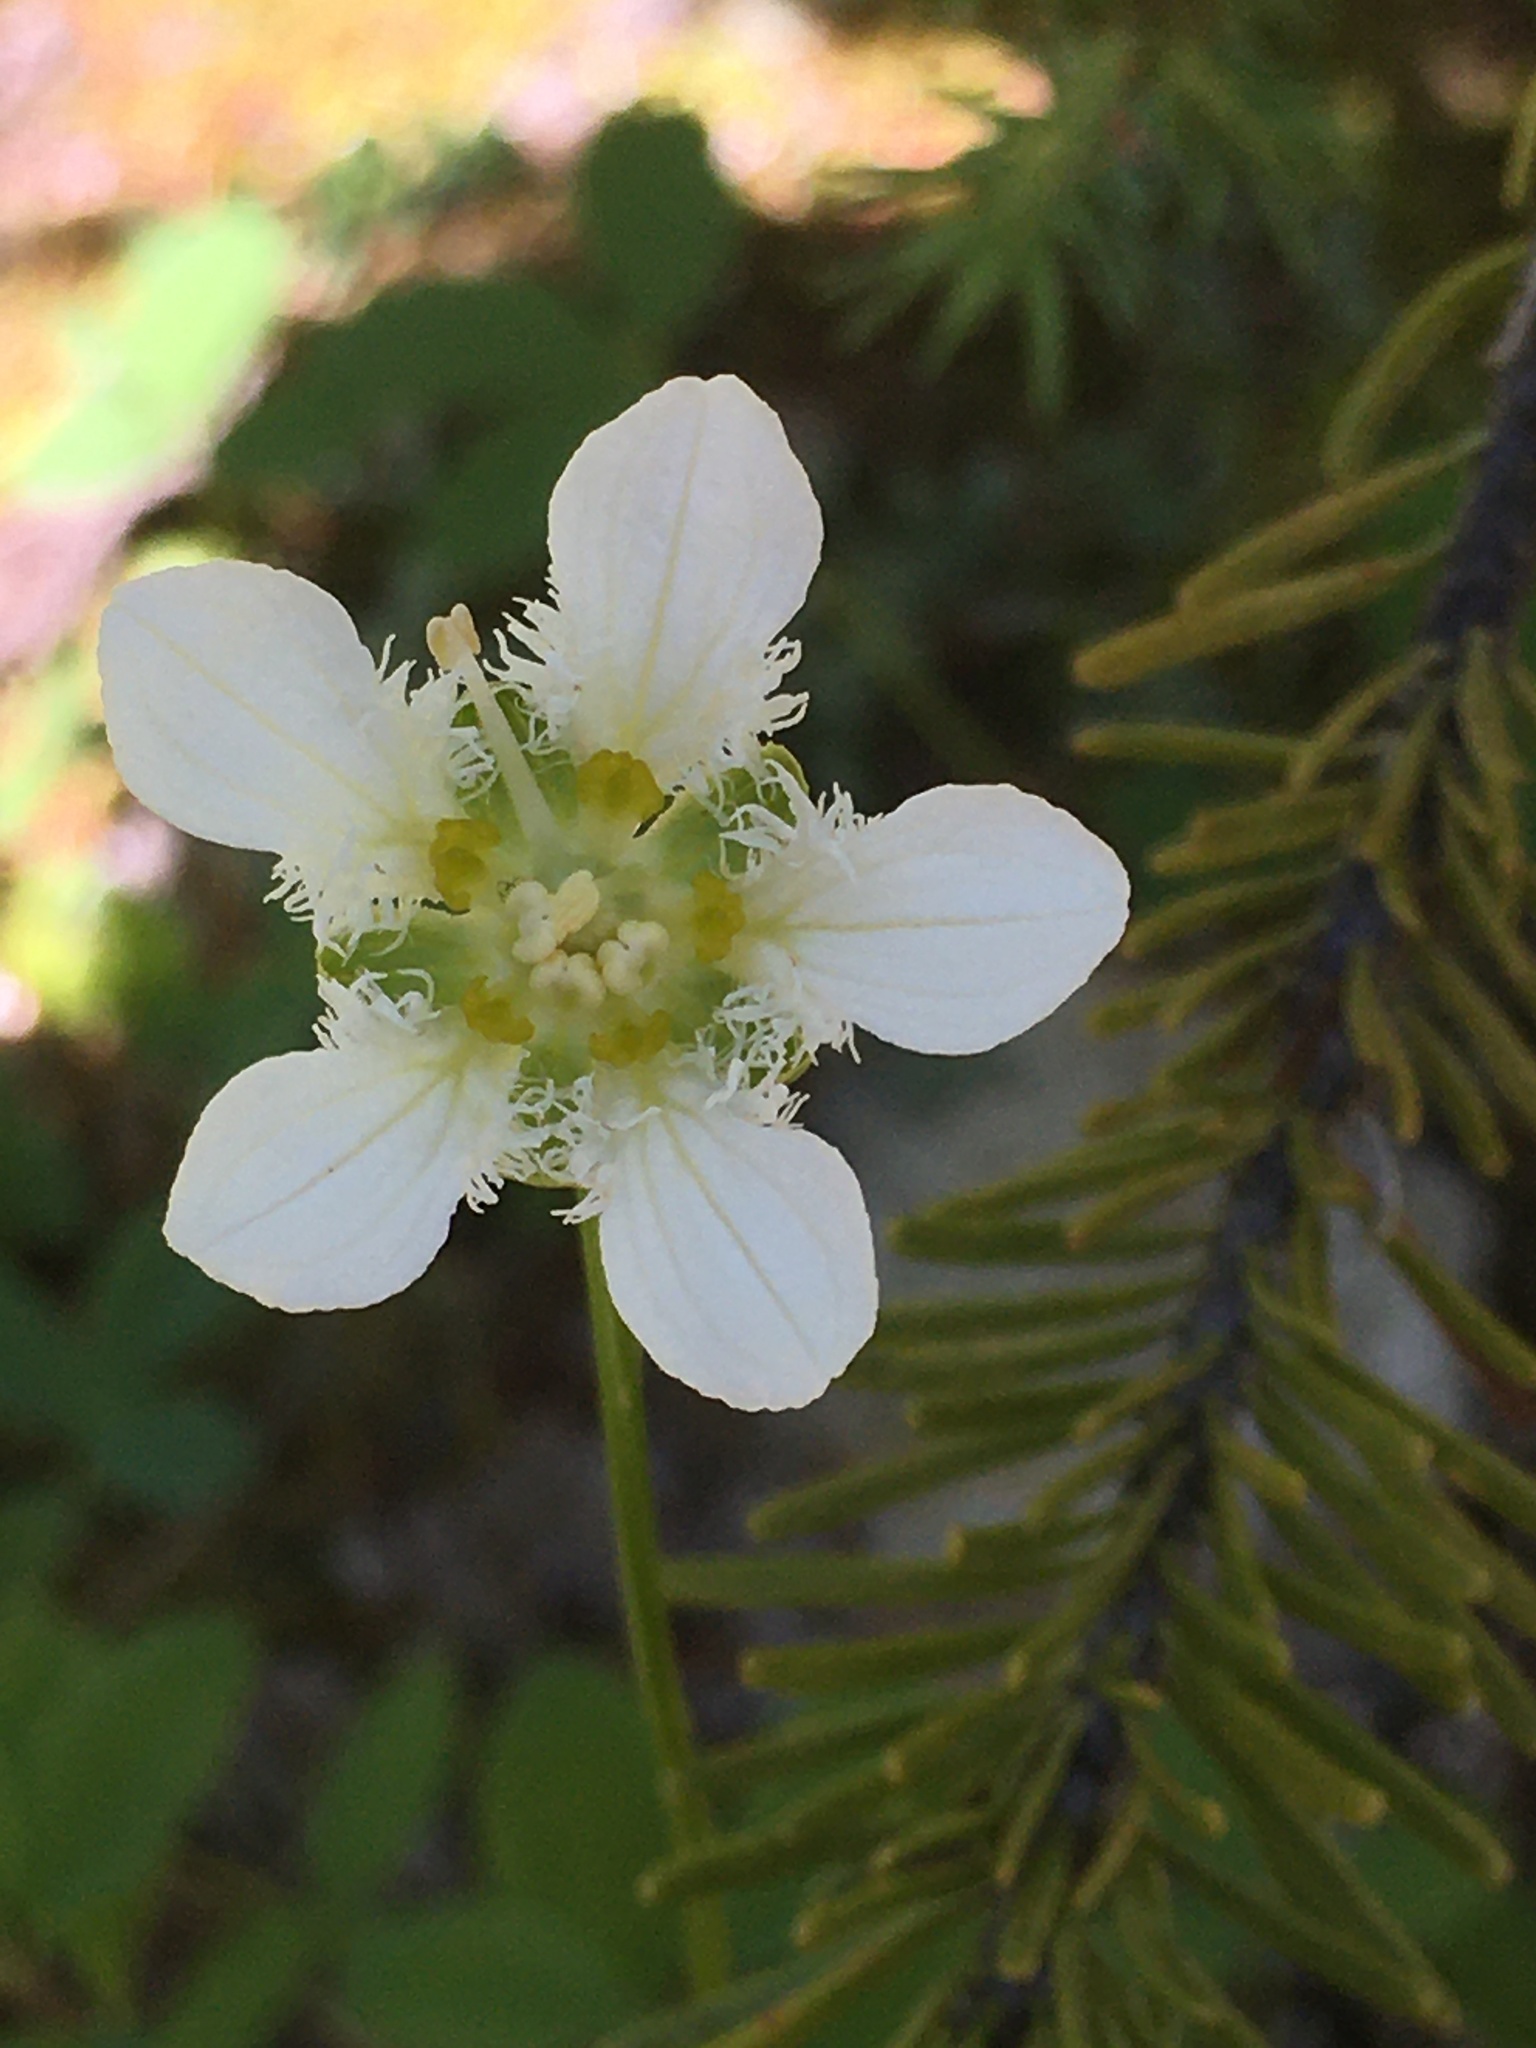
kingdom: Plantae
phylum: Tracheophyta
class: Magnoliopsida
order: Celastrales
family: Parnassiaceae
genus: Parnassia
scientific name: Parnassia fimbriata
